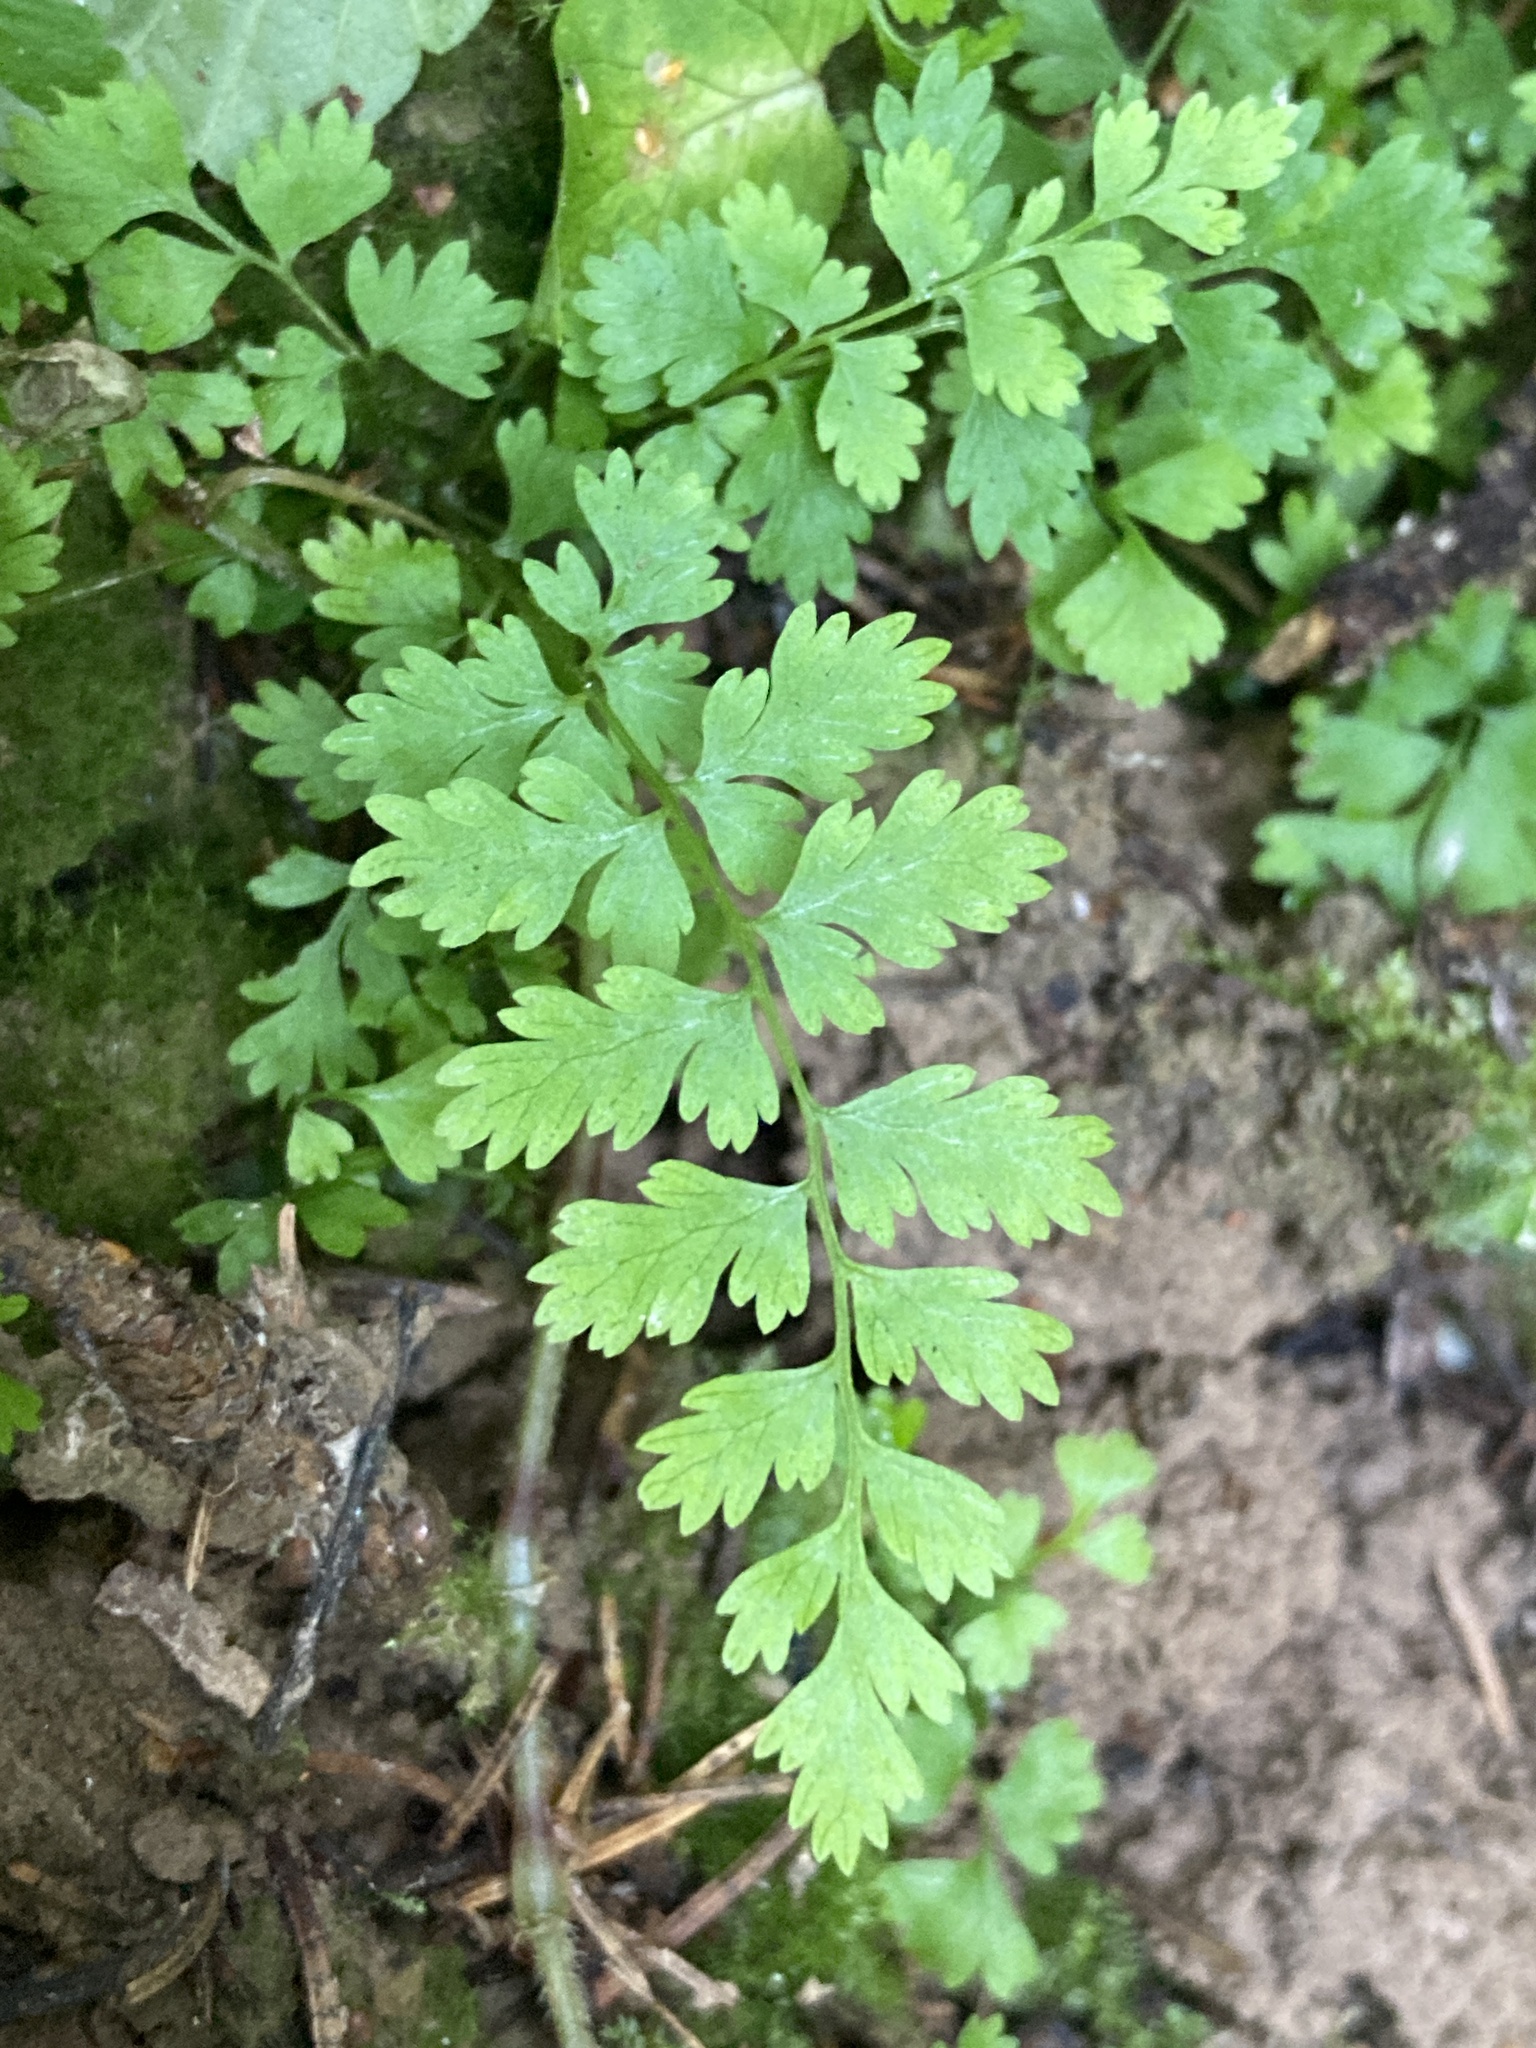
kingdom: Plantae
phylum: Tracheophyta
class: Polypodiopsida
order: Polypodiales
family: Cystopteridaceae
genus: Cystopteris
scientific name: Cystopteris fragilis
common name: Brittle bladder fern
